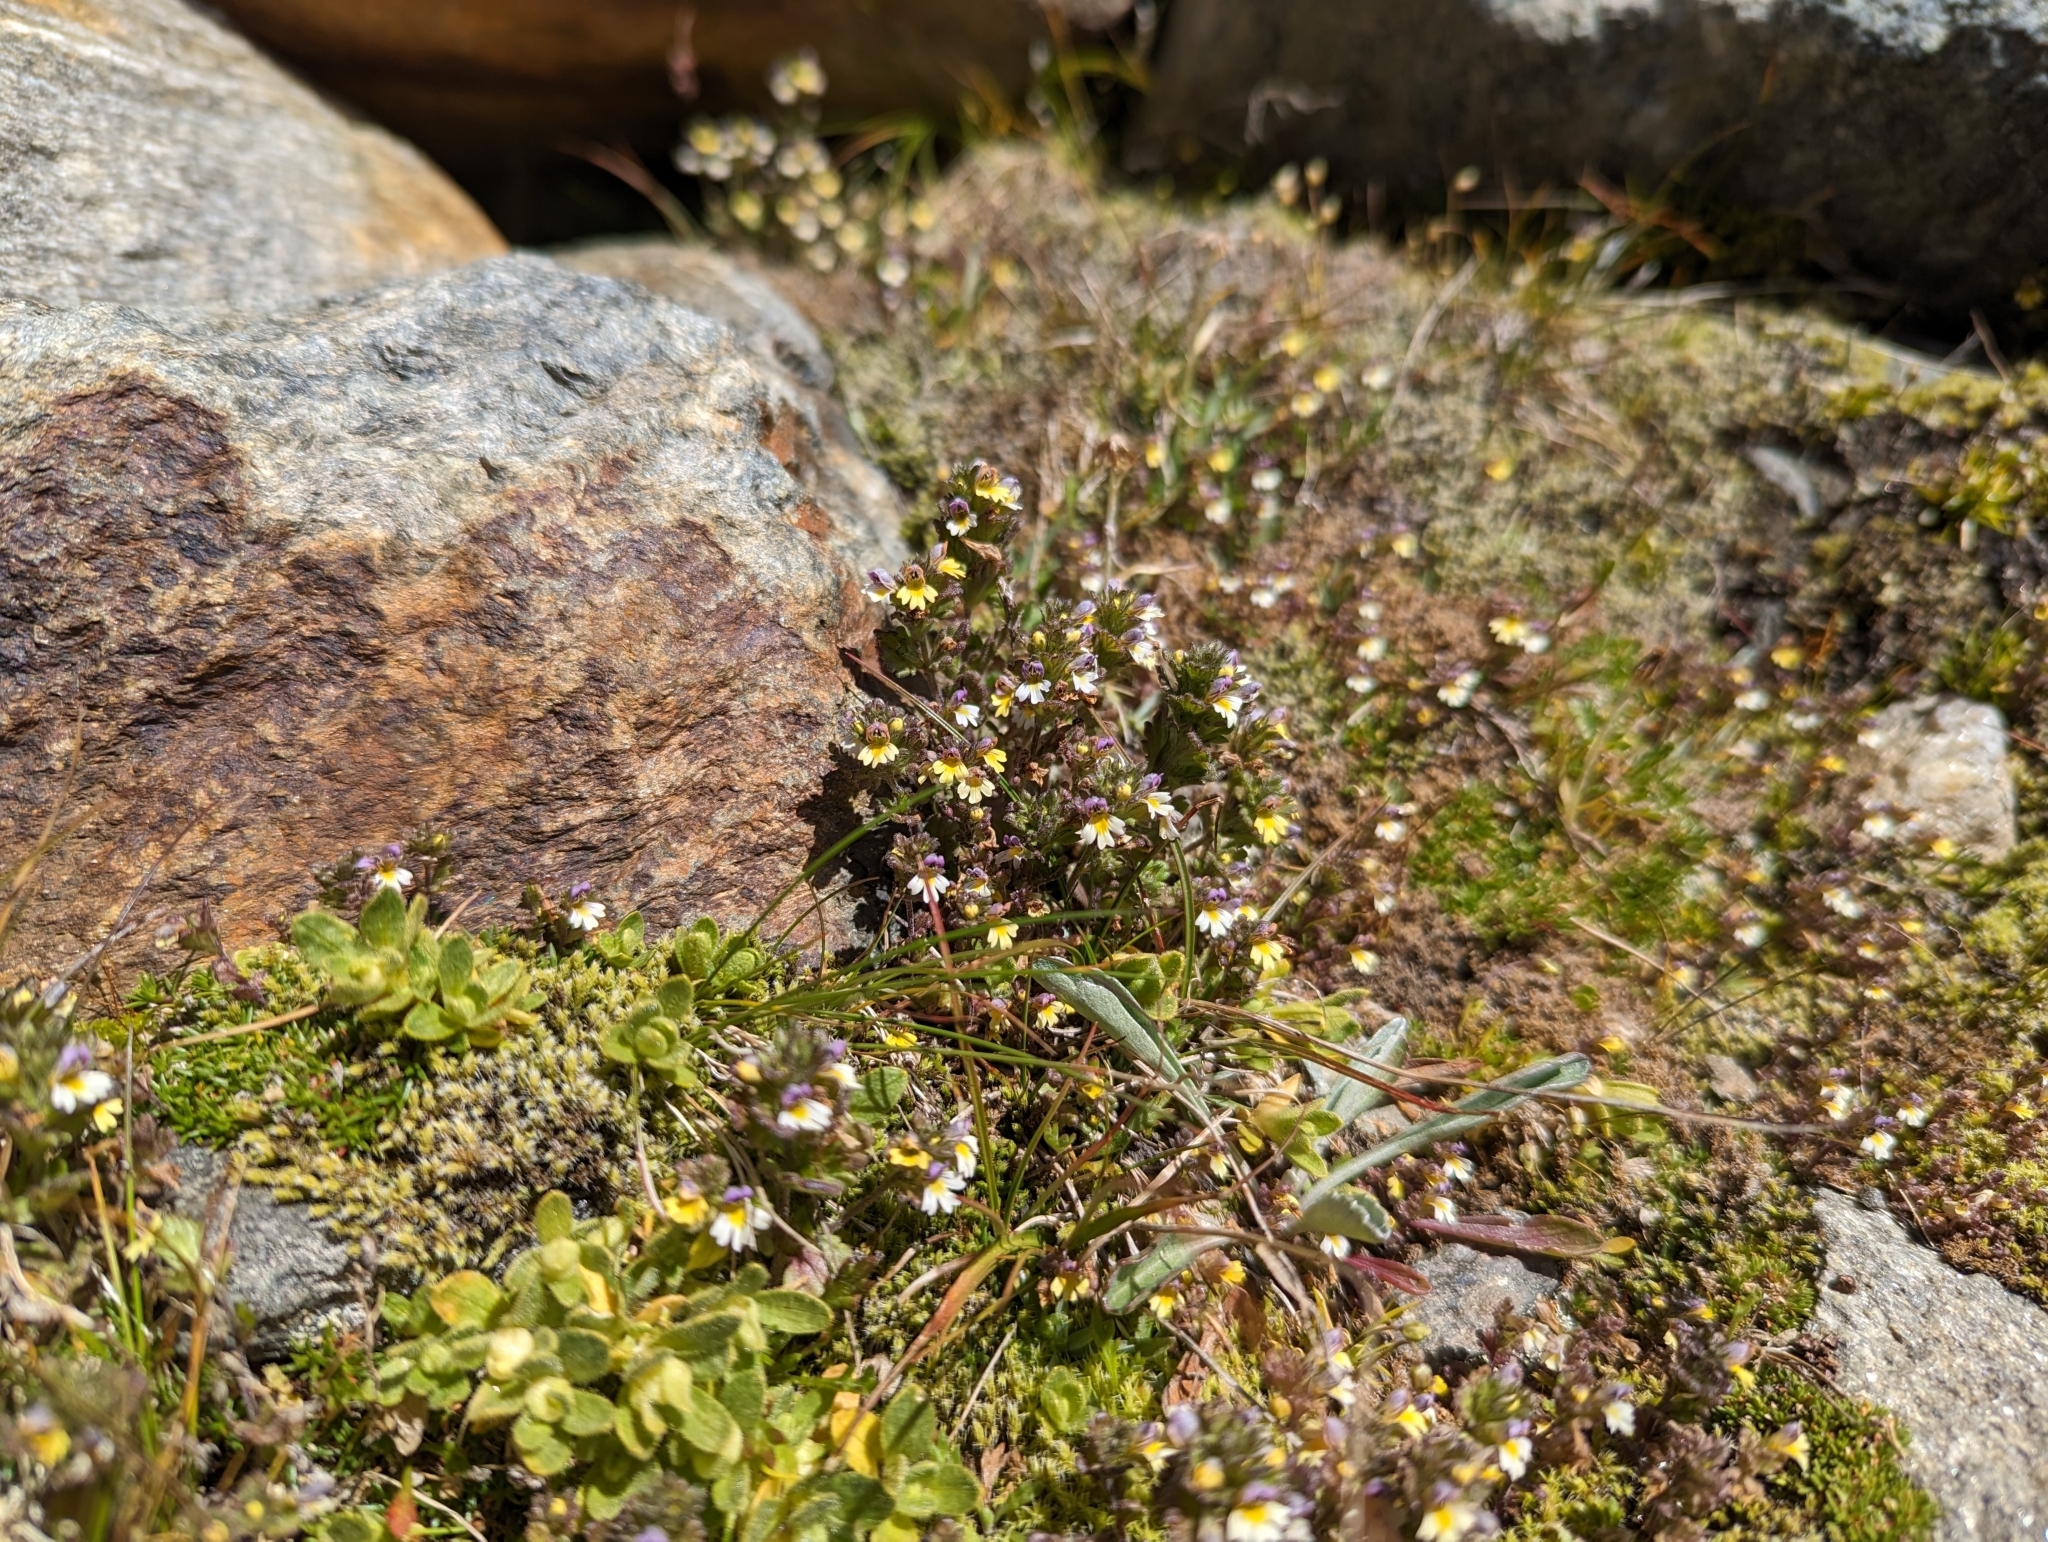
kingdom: Plantae
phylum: Tracheophyta
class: Magnoliopsida
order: Lamiales
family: Orobanchaceae
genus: Euphrasia
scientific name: Euphrasia minima
